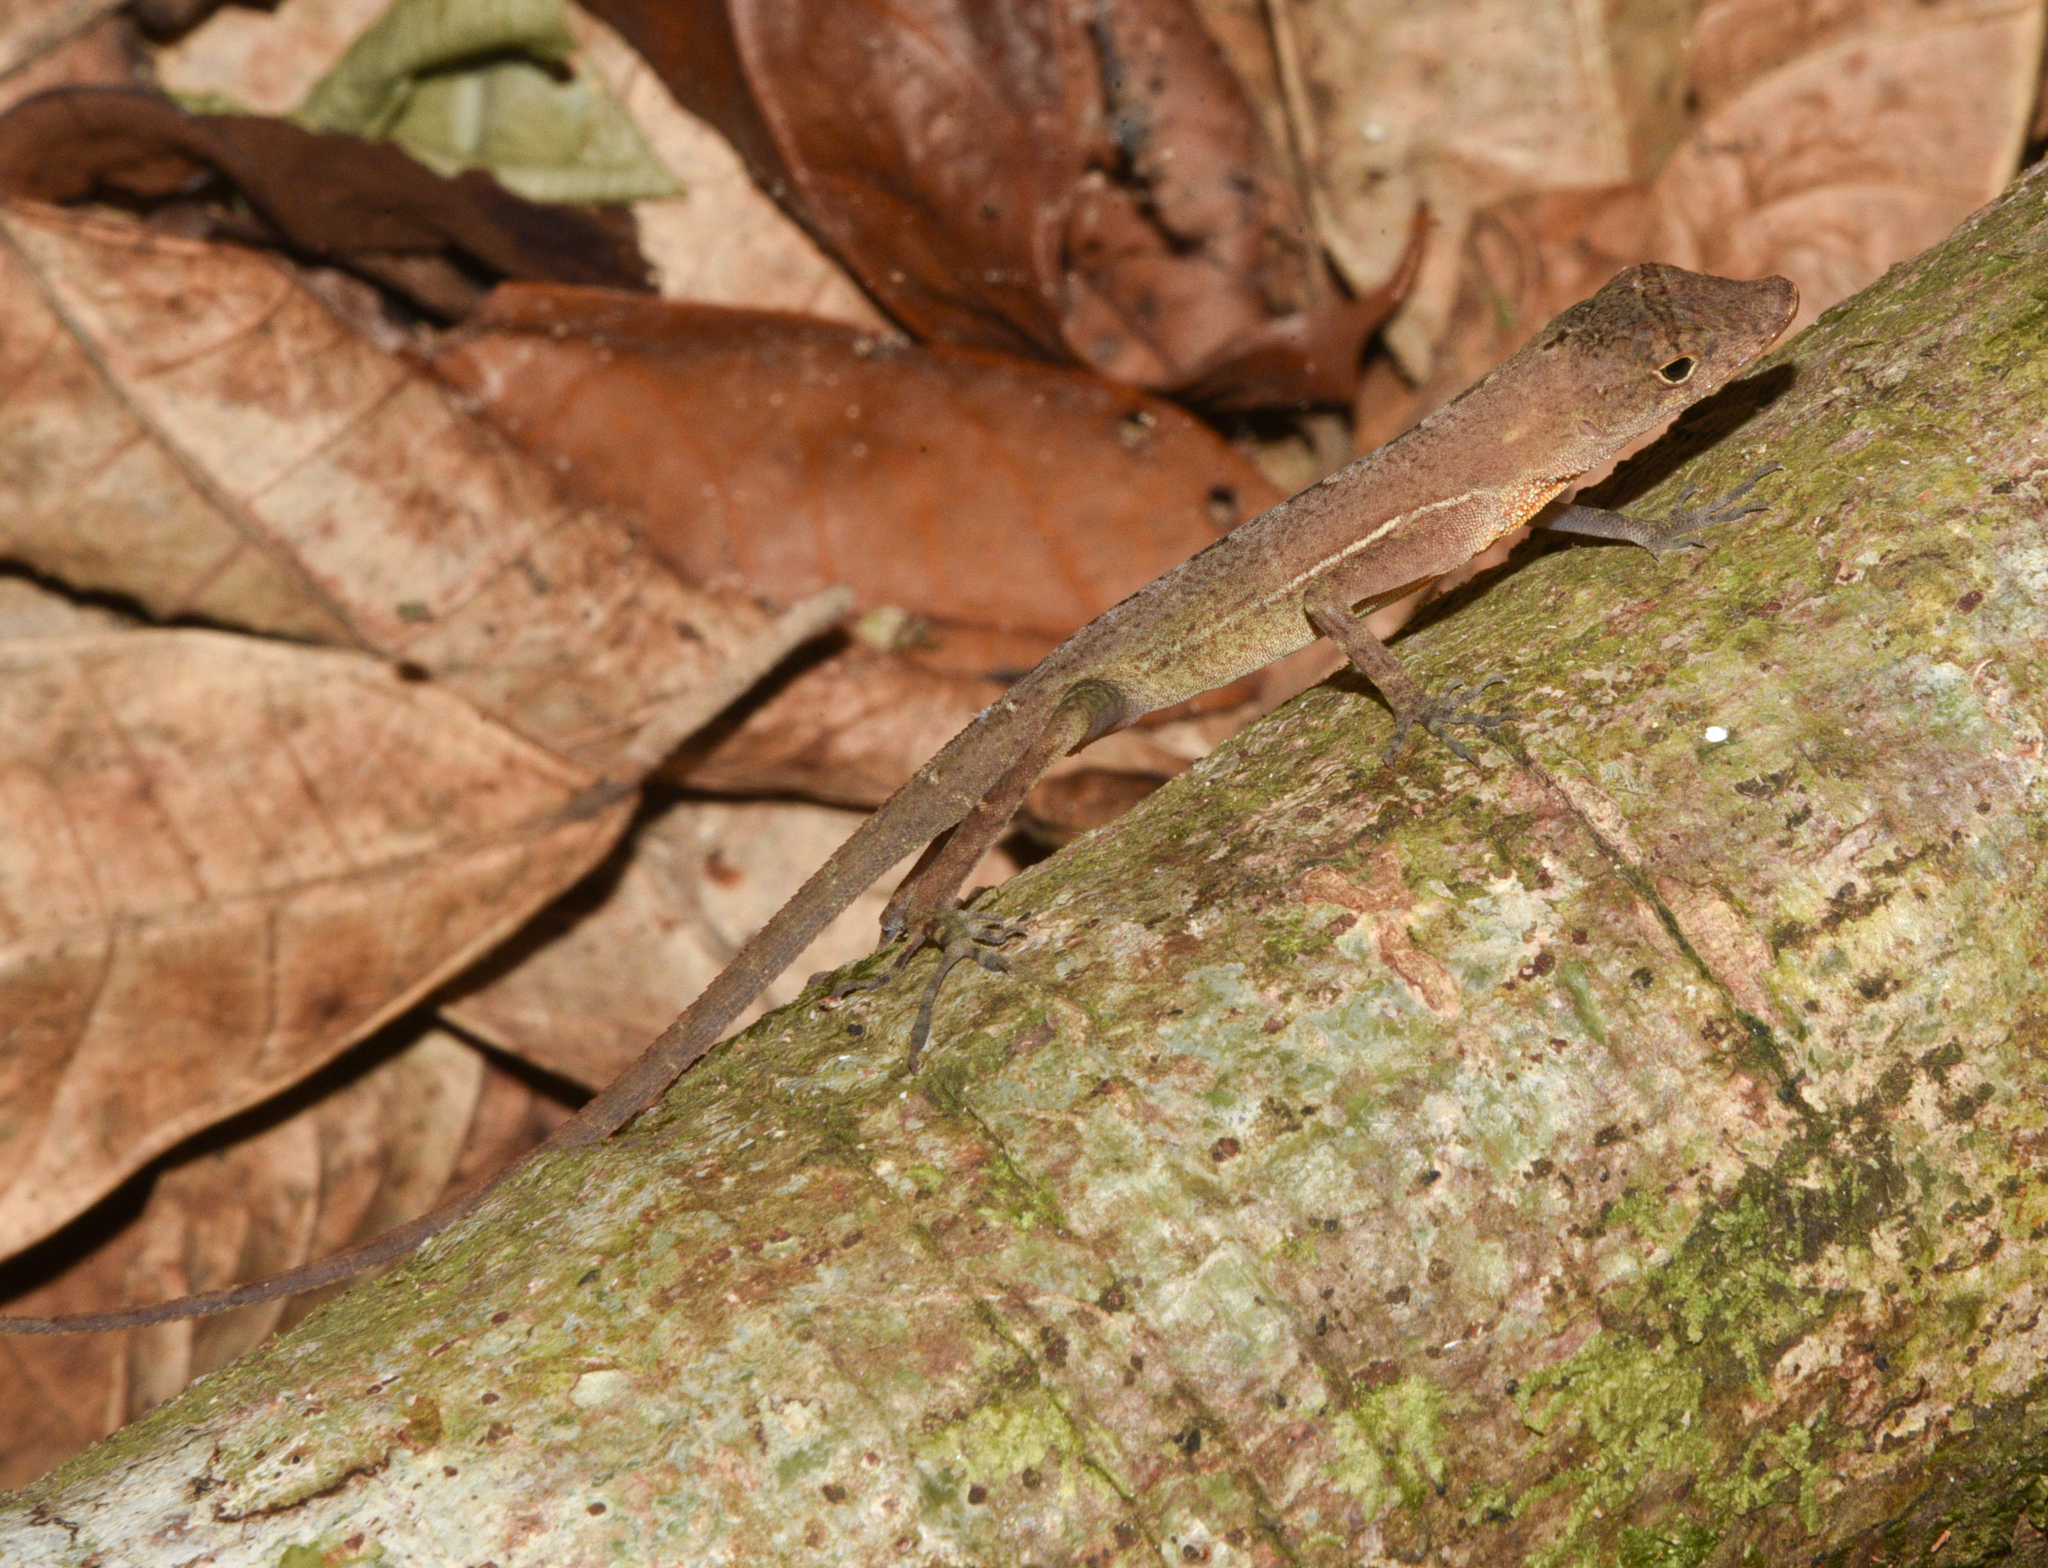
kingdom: Animalia
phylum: Chordata
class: Squamata
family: Dactyloidae
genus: Anolis
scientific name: Anolis osa
